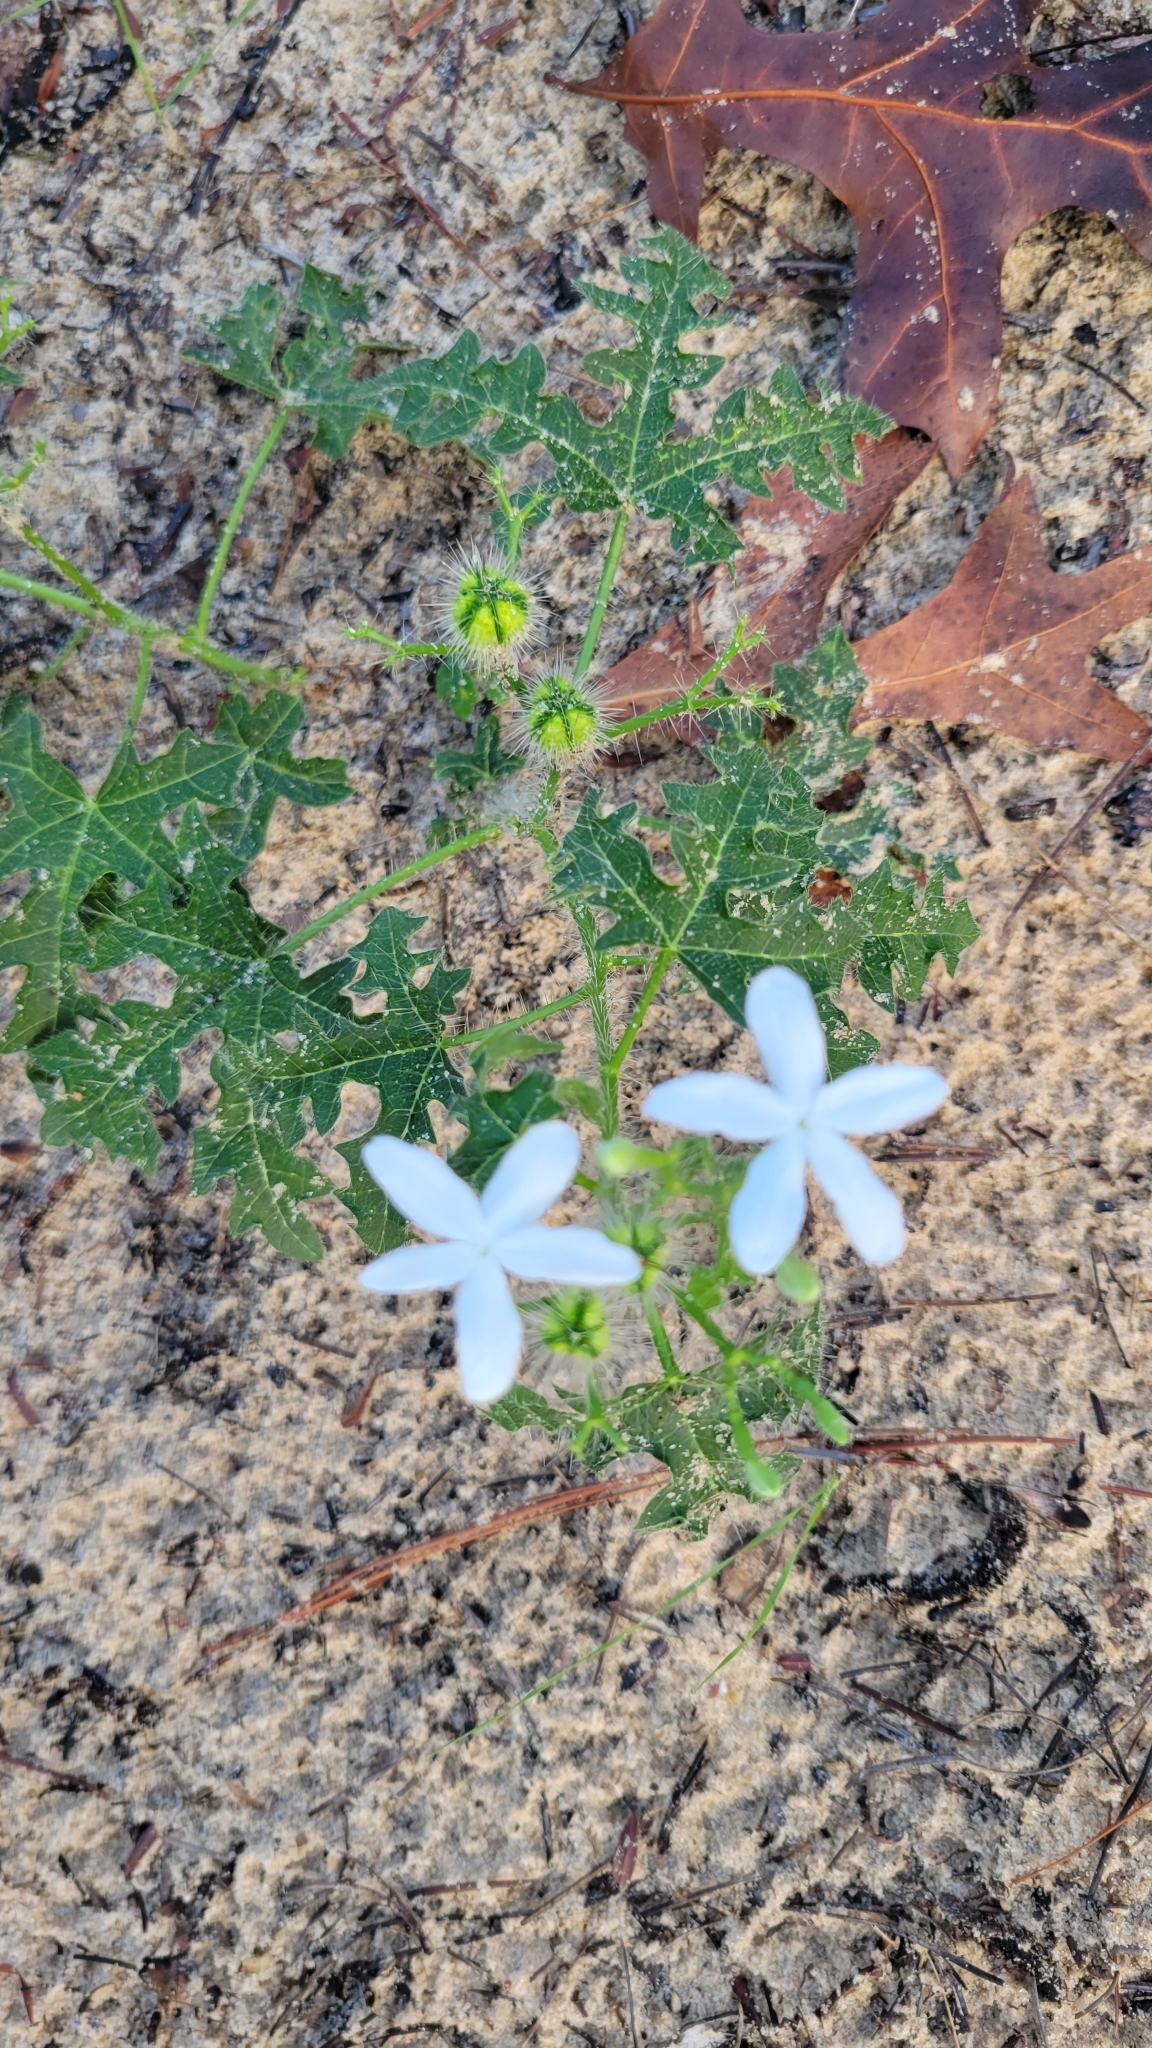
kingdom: Plantae
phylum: Tracheophyta
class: Magnoliopsida
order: Malpighiales
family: Euphorbiaceae
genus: Cnidoscolus
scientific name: Cnidoscolus stimulosus
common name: Bull-nettle
